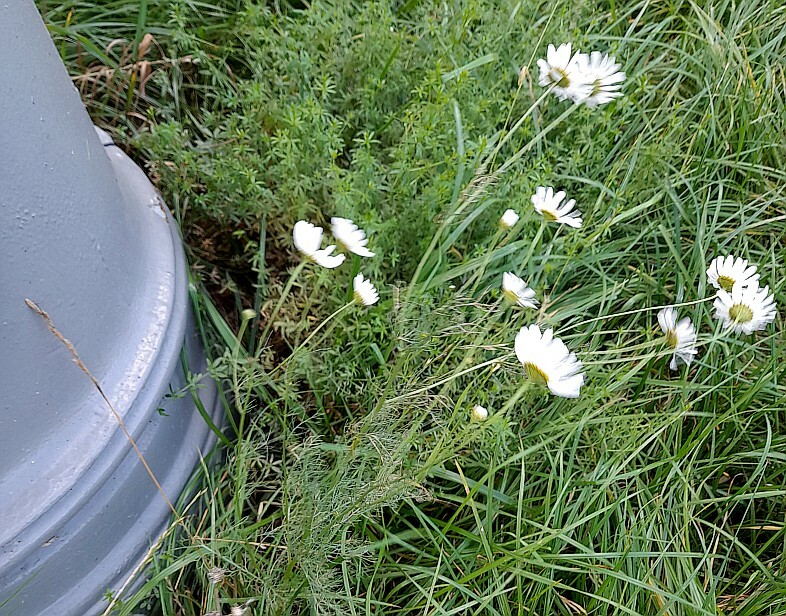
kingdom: Plantae
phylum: Tracheophyta
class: Magnoliopsida
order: Asterales
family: Asteraceae
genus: Tripleurospermum
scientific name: Tripleurospermum inodorum
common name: Scentless mayweed
